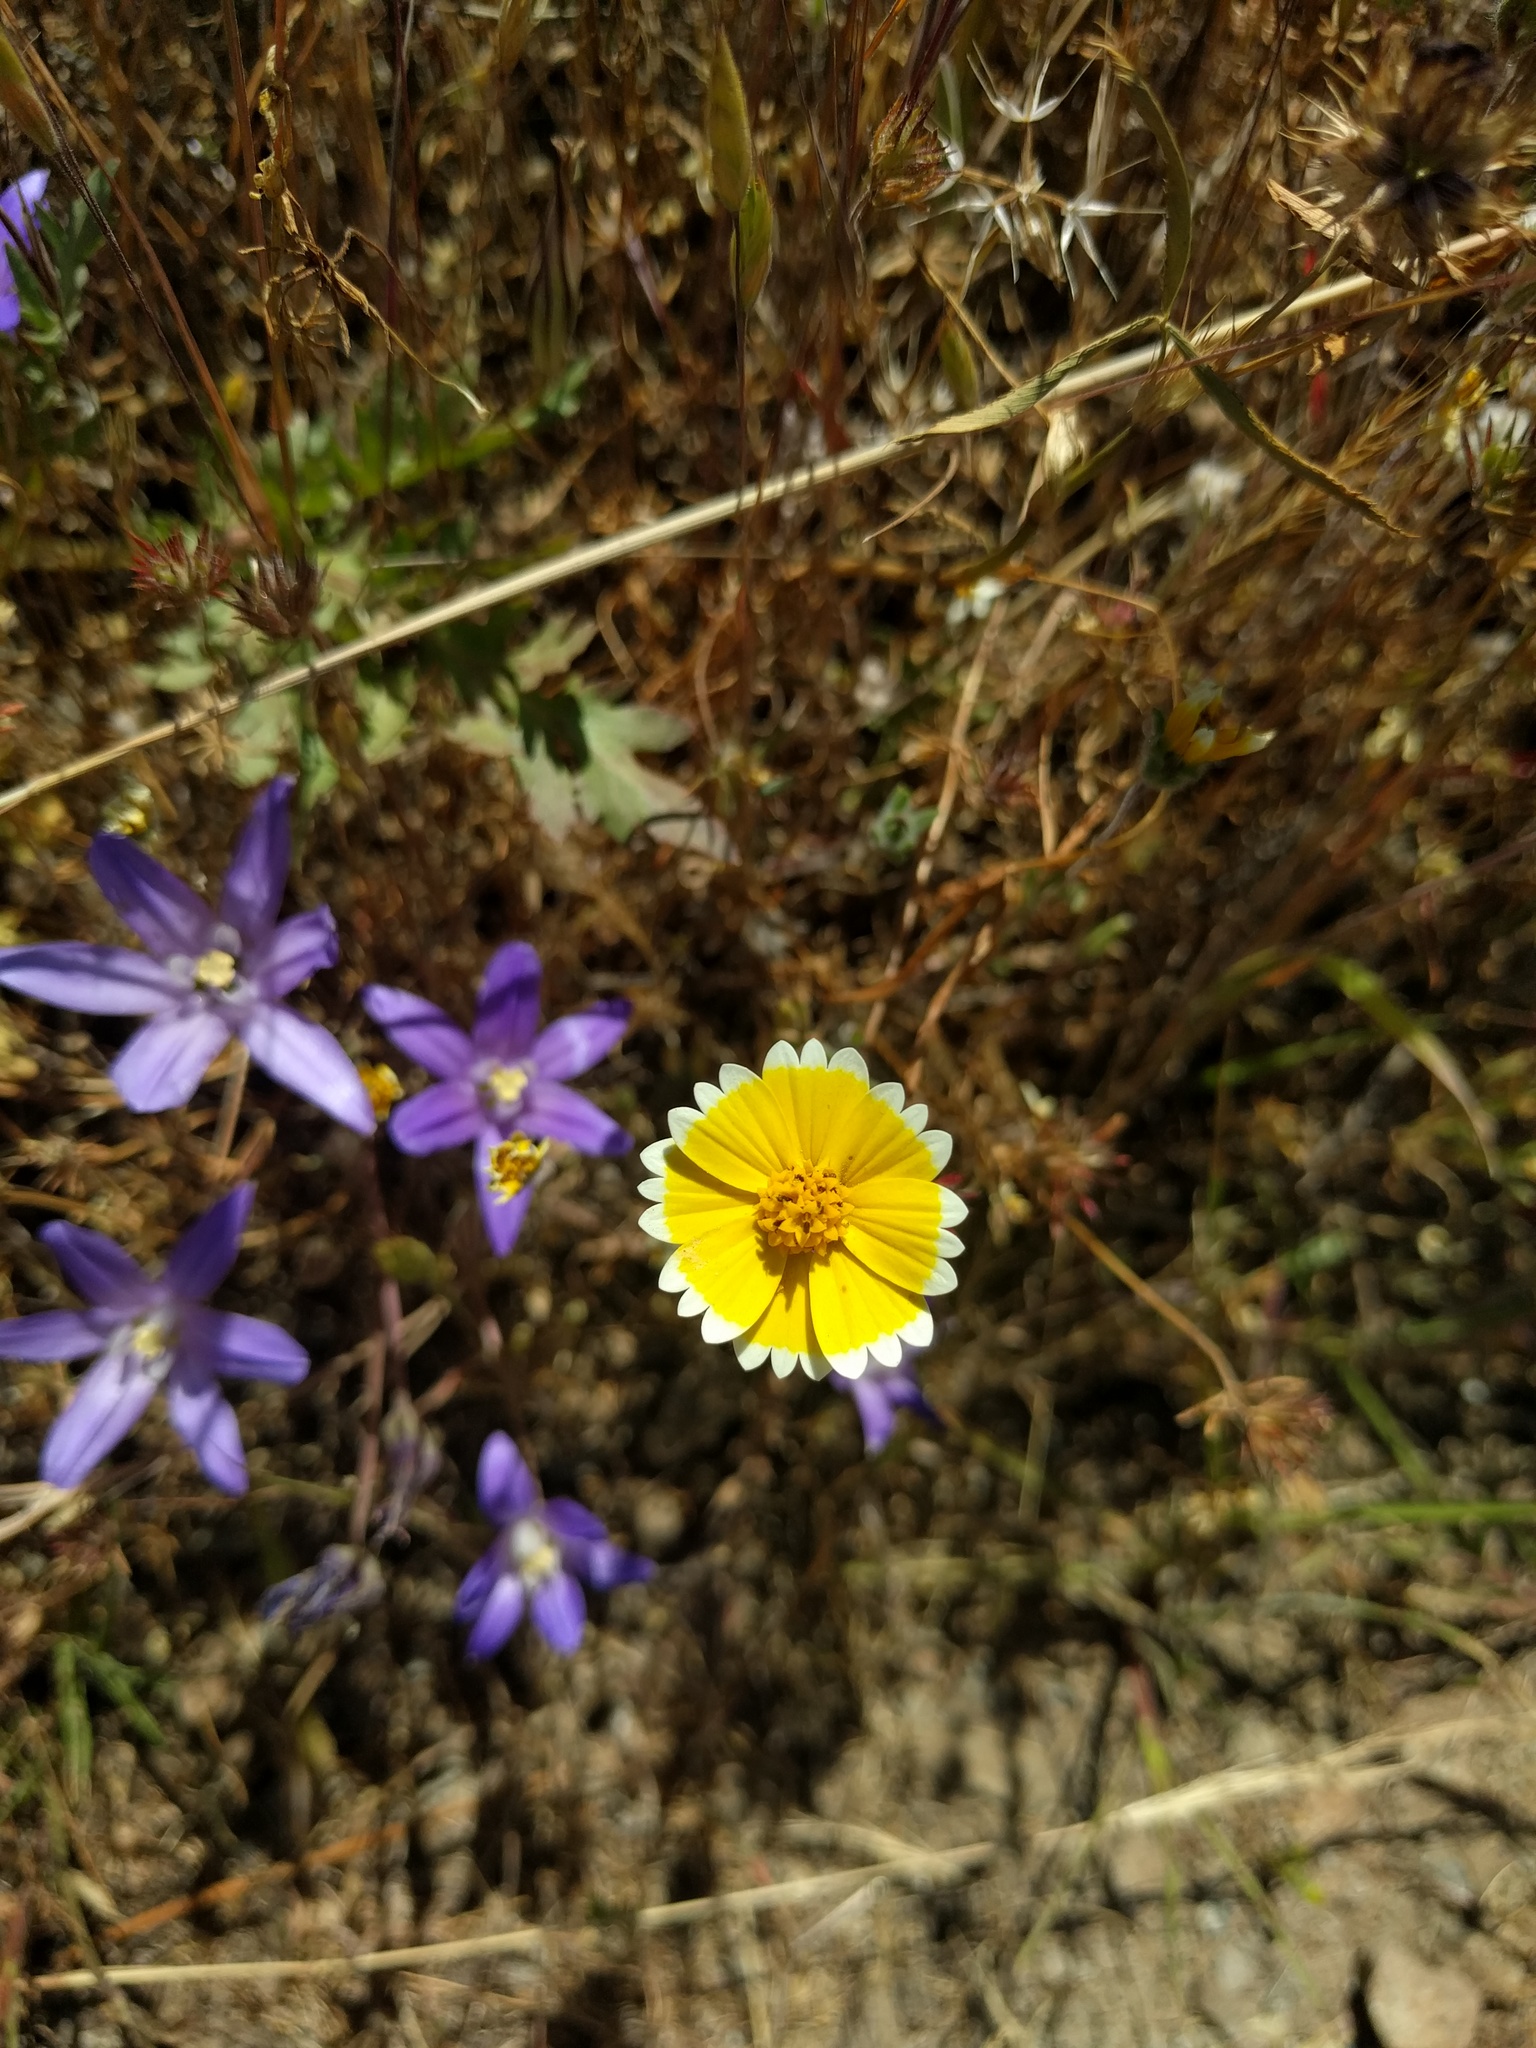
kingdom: Plantae
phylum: Tracheophyta
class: Magnoliopsida
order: Asterales
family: Asteraceae
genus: Layia
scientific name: Layia platyglossa
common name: Tidy-tips
